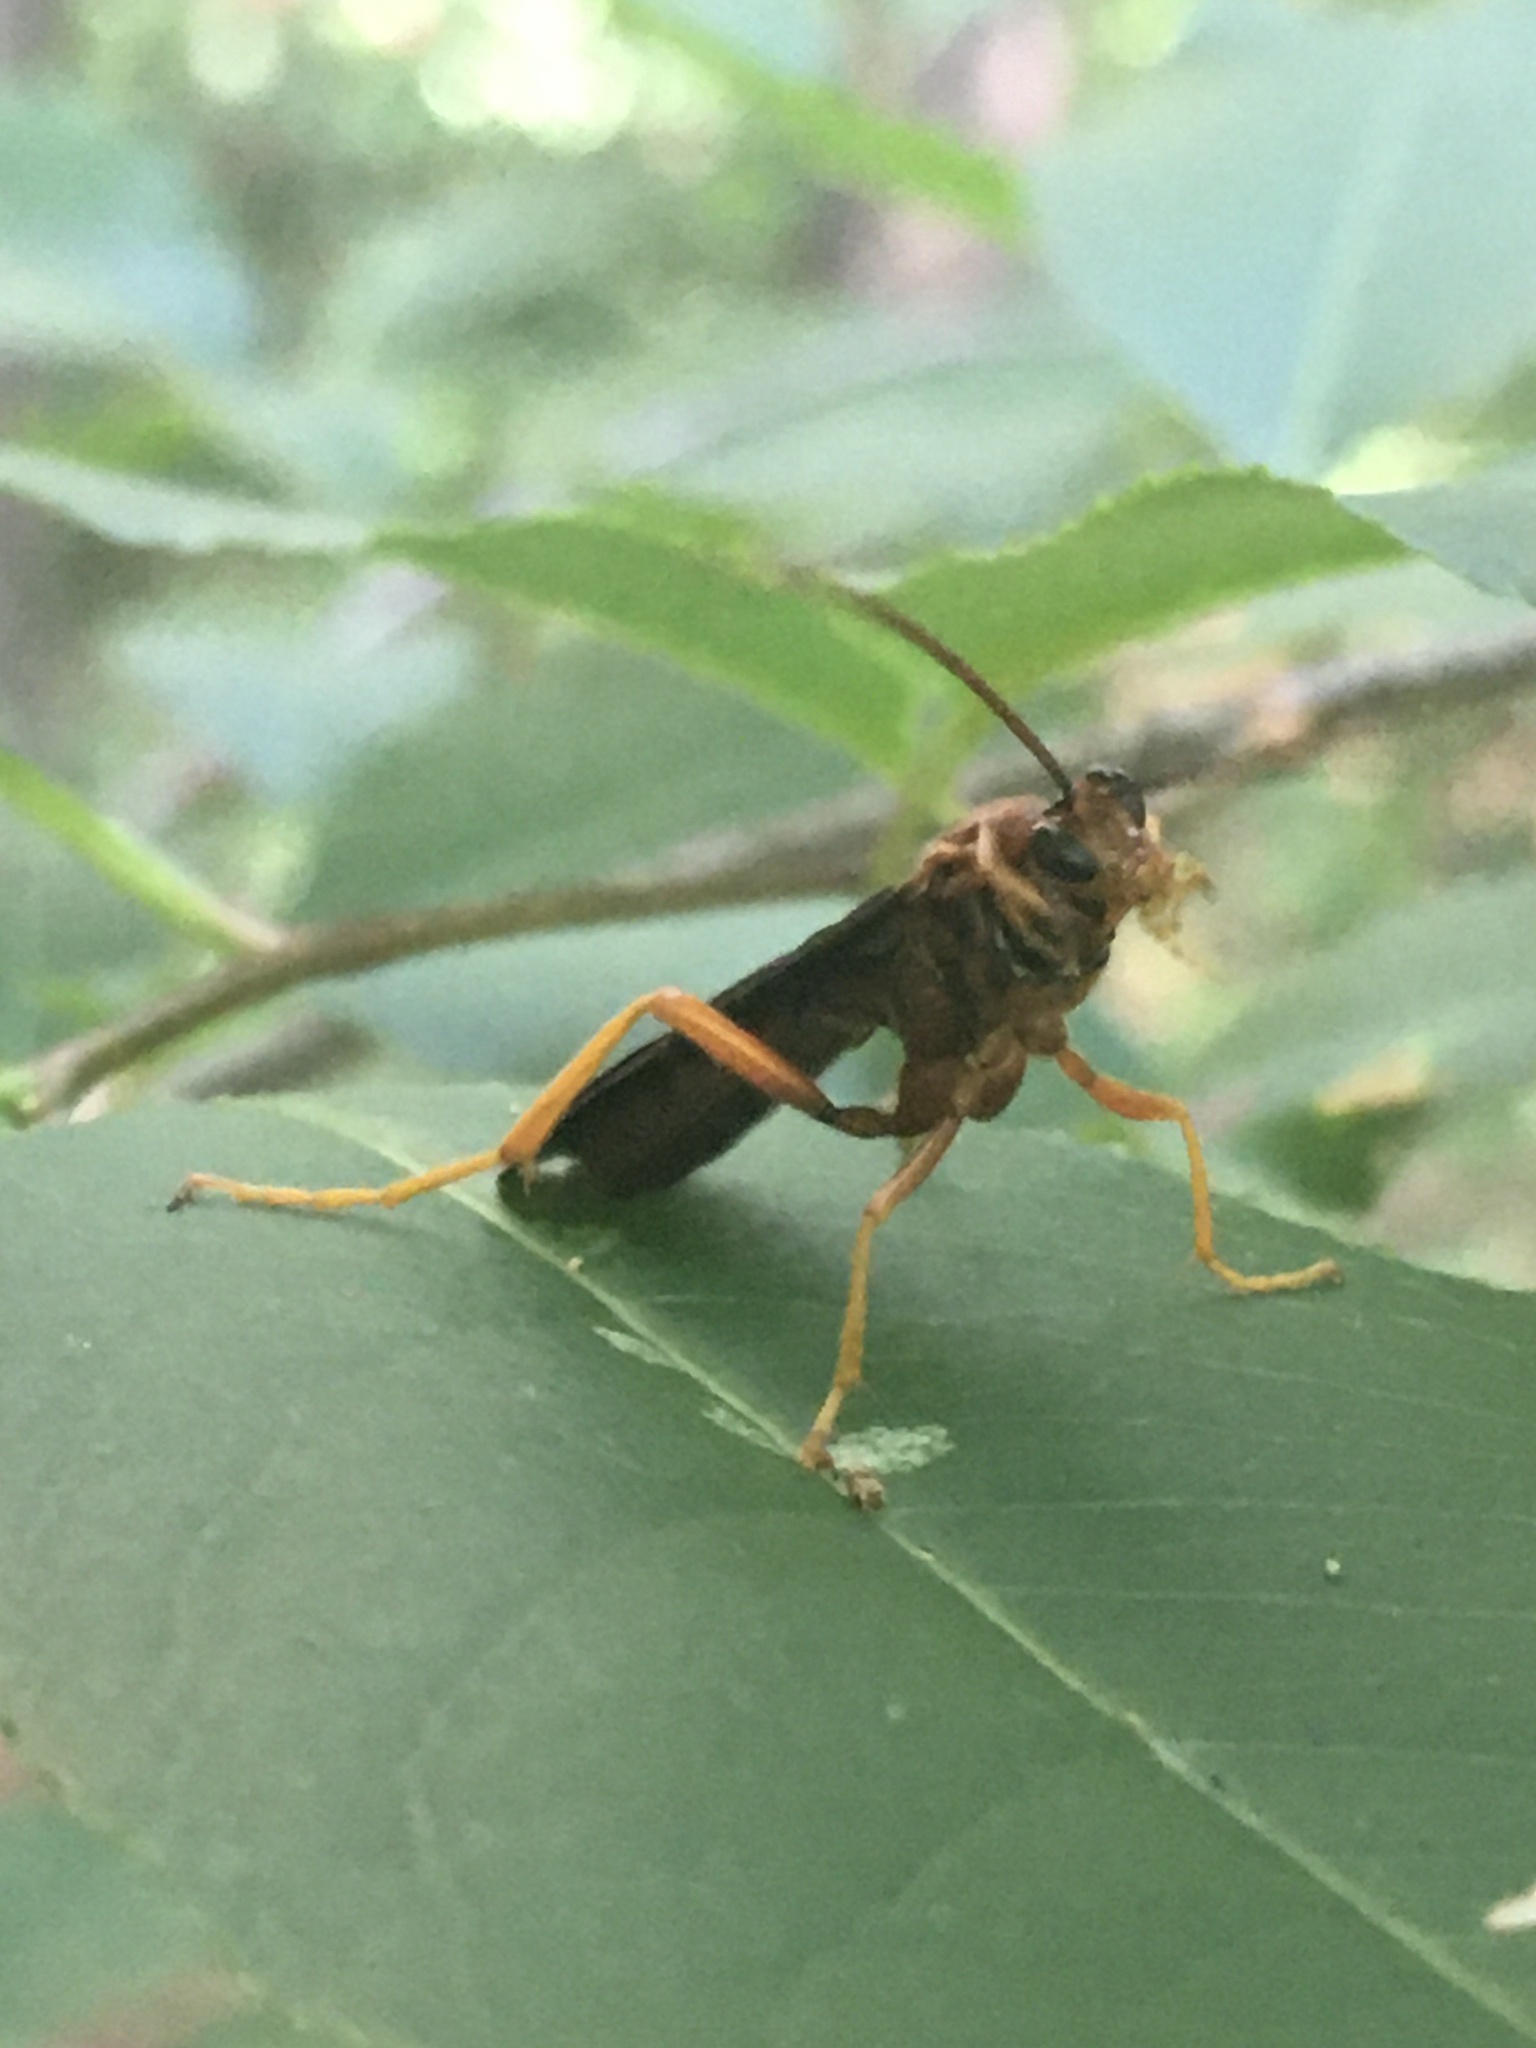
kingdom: Animalia
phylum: Arthropoda
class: Insecta
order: Hymenoptera
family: Ichneumonidae
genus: Trogus
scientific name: Trogus
